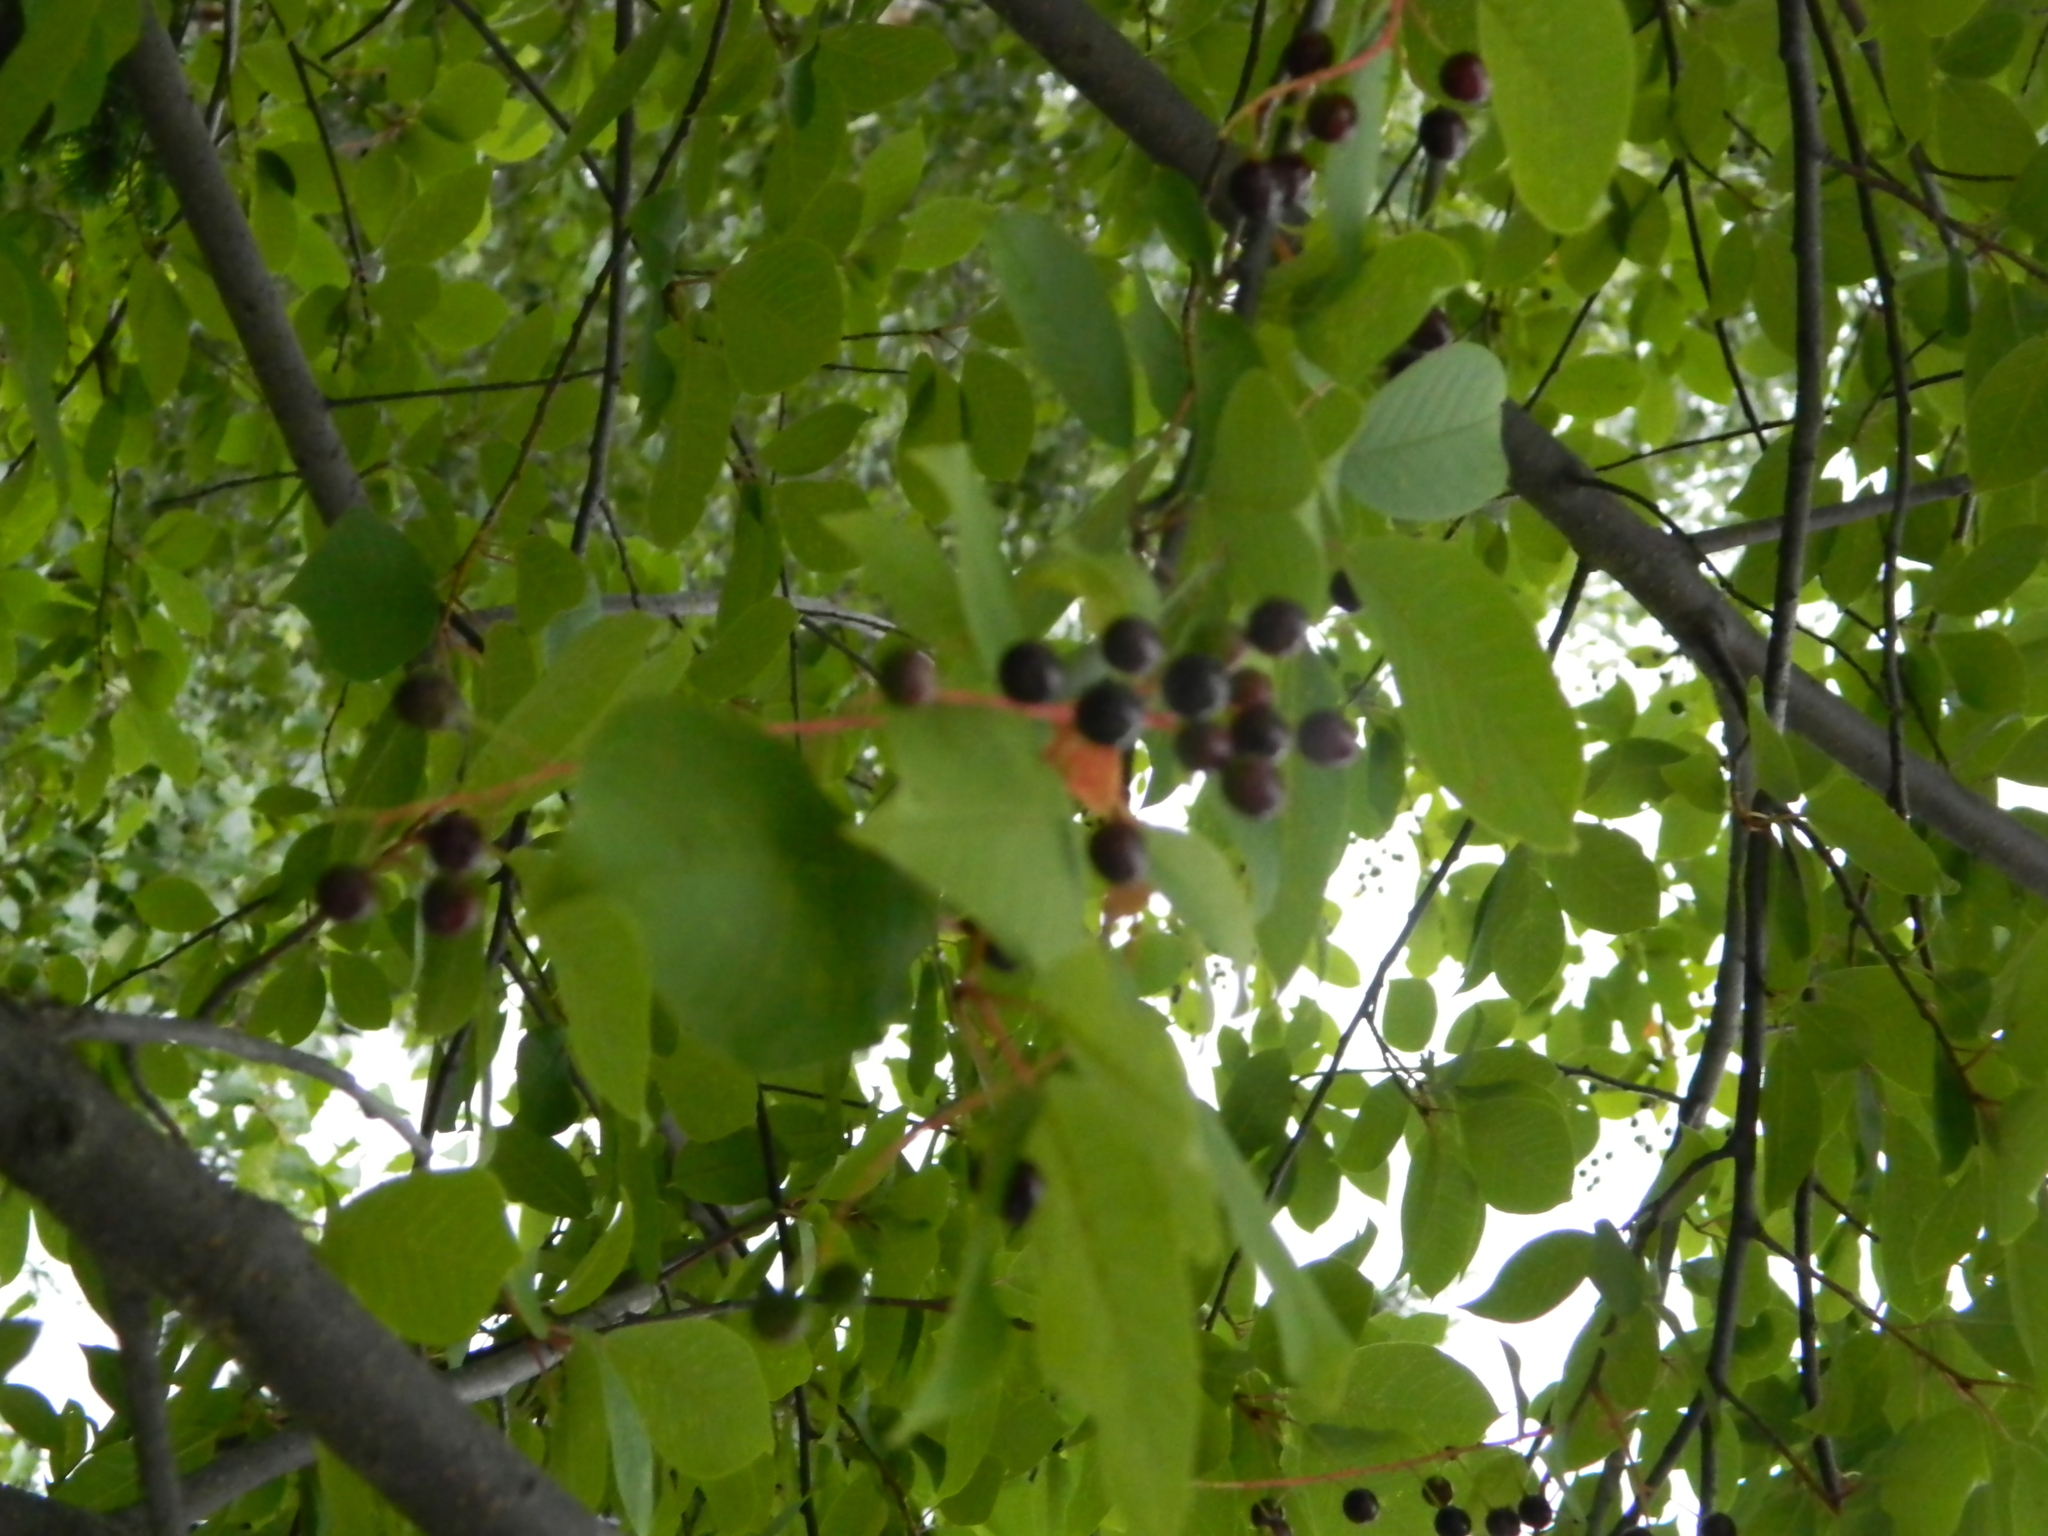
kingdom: Plantae
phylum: Tracheophyta
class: Magnoliopsida
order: Rosales
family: Rosaceae
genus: Prunus
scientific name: Prunus padus
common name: Bird cherry
